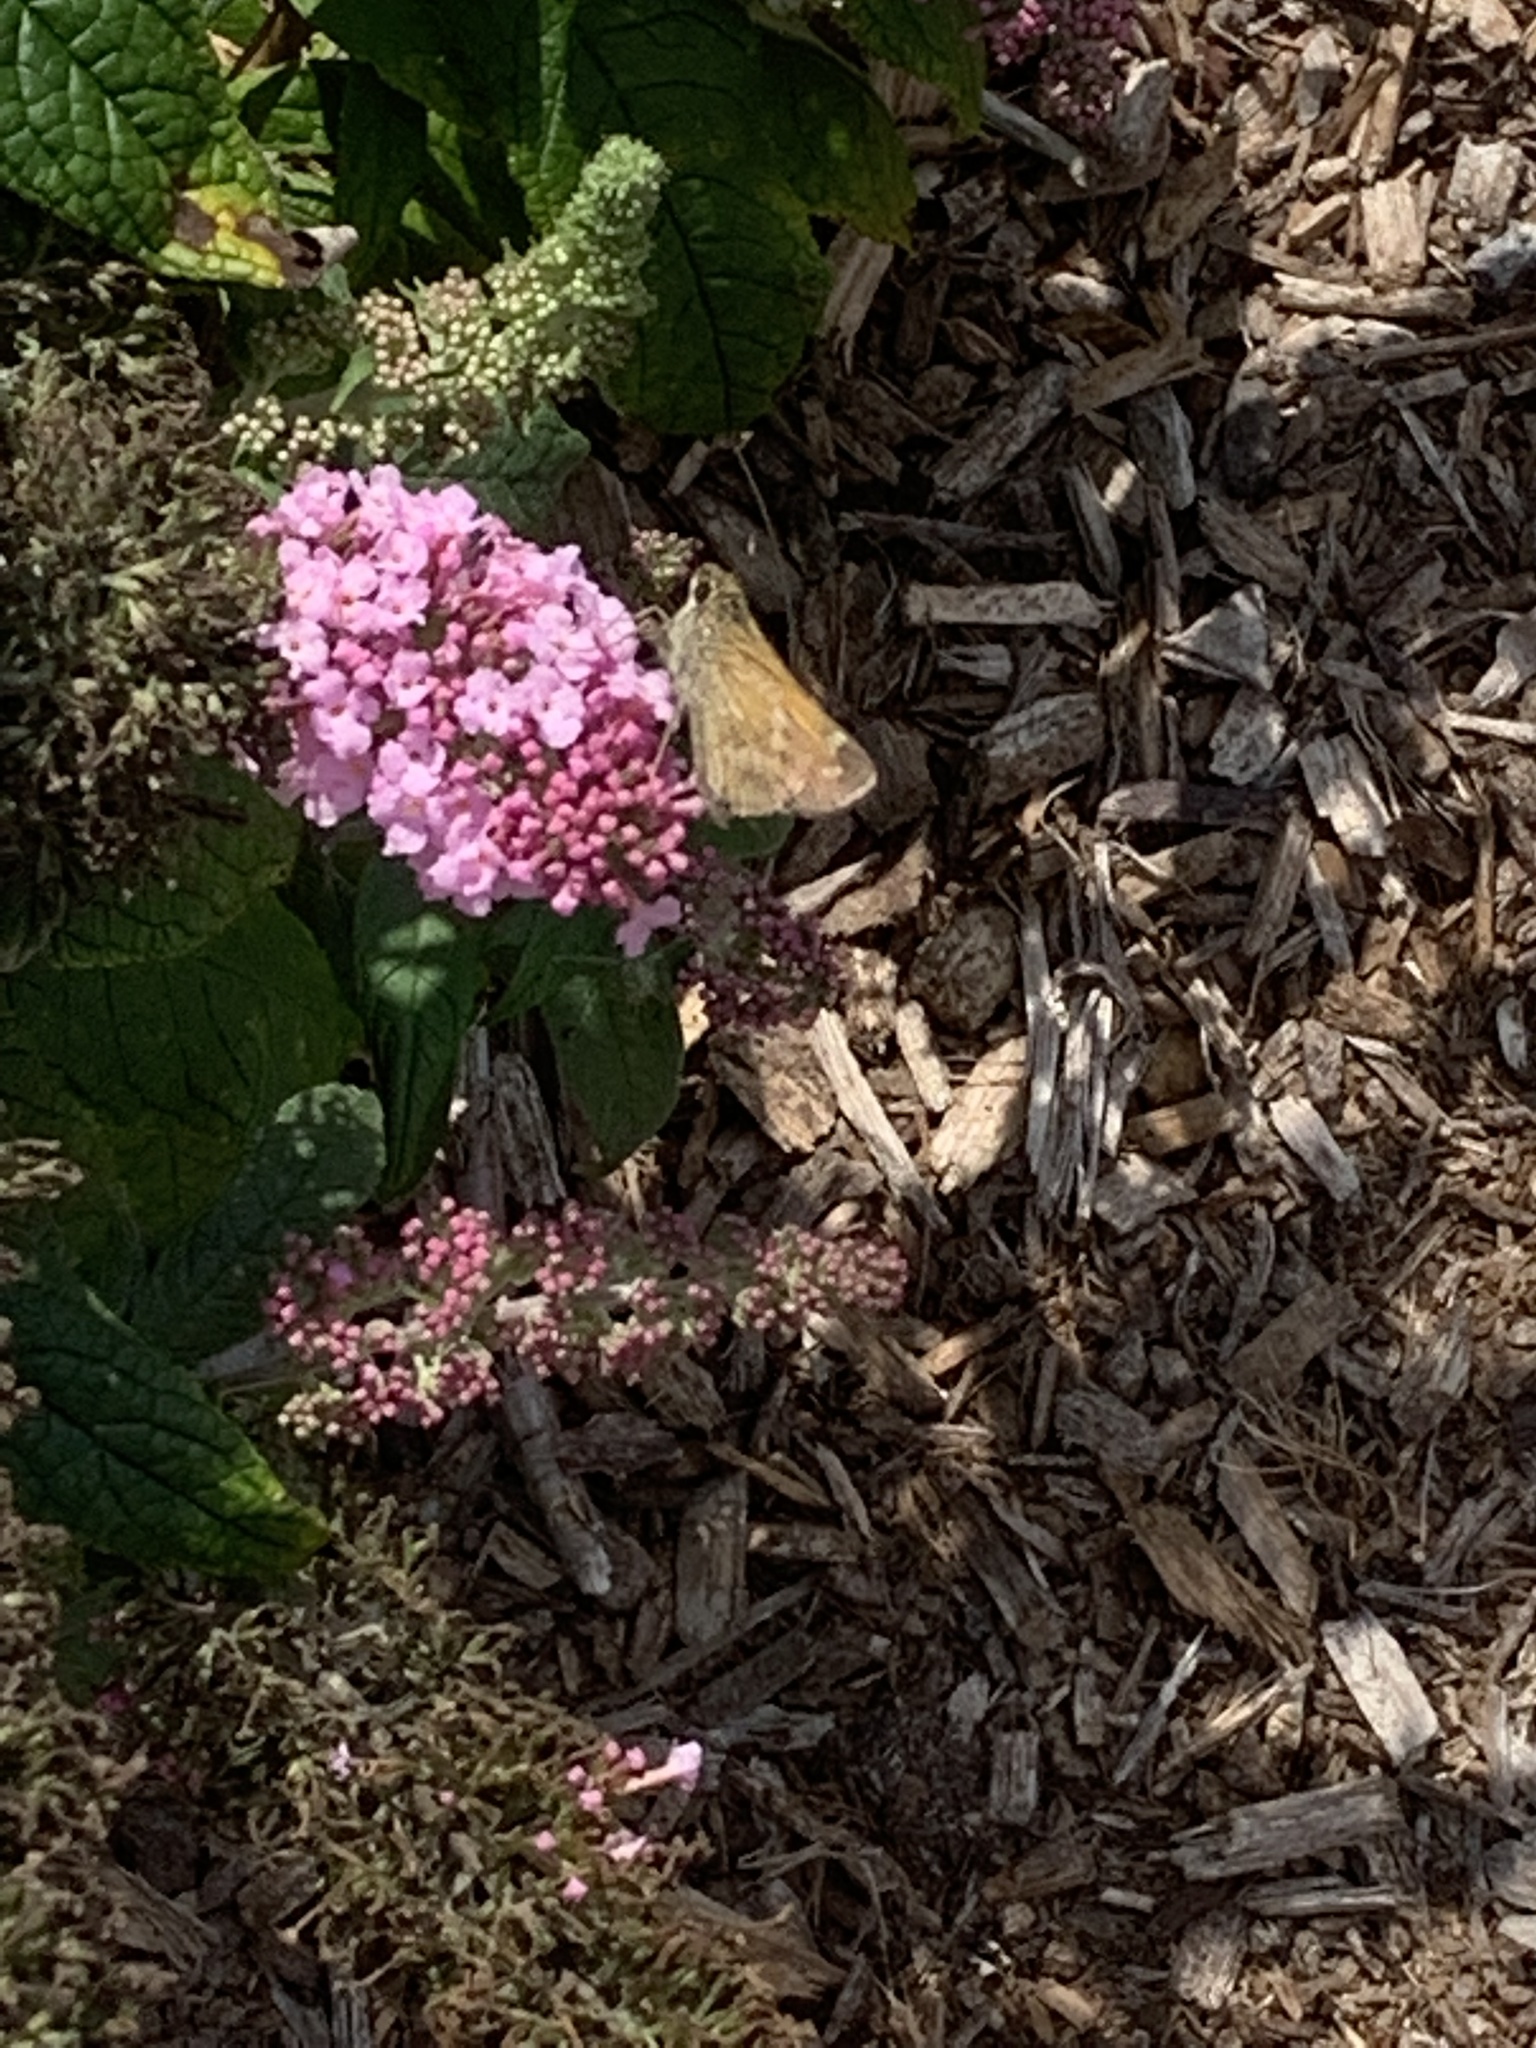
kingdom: Animalia
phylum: Arthropoda
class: Insecta
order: Lepidoptera
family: Hesperiidae
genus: Atalopedes
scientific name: Atalopedes
